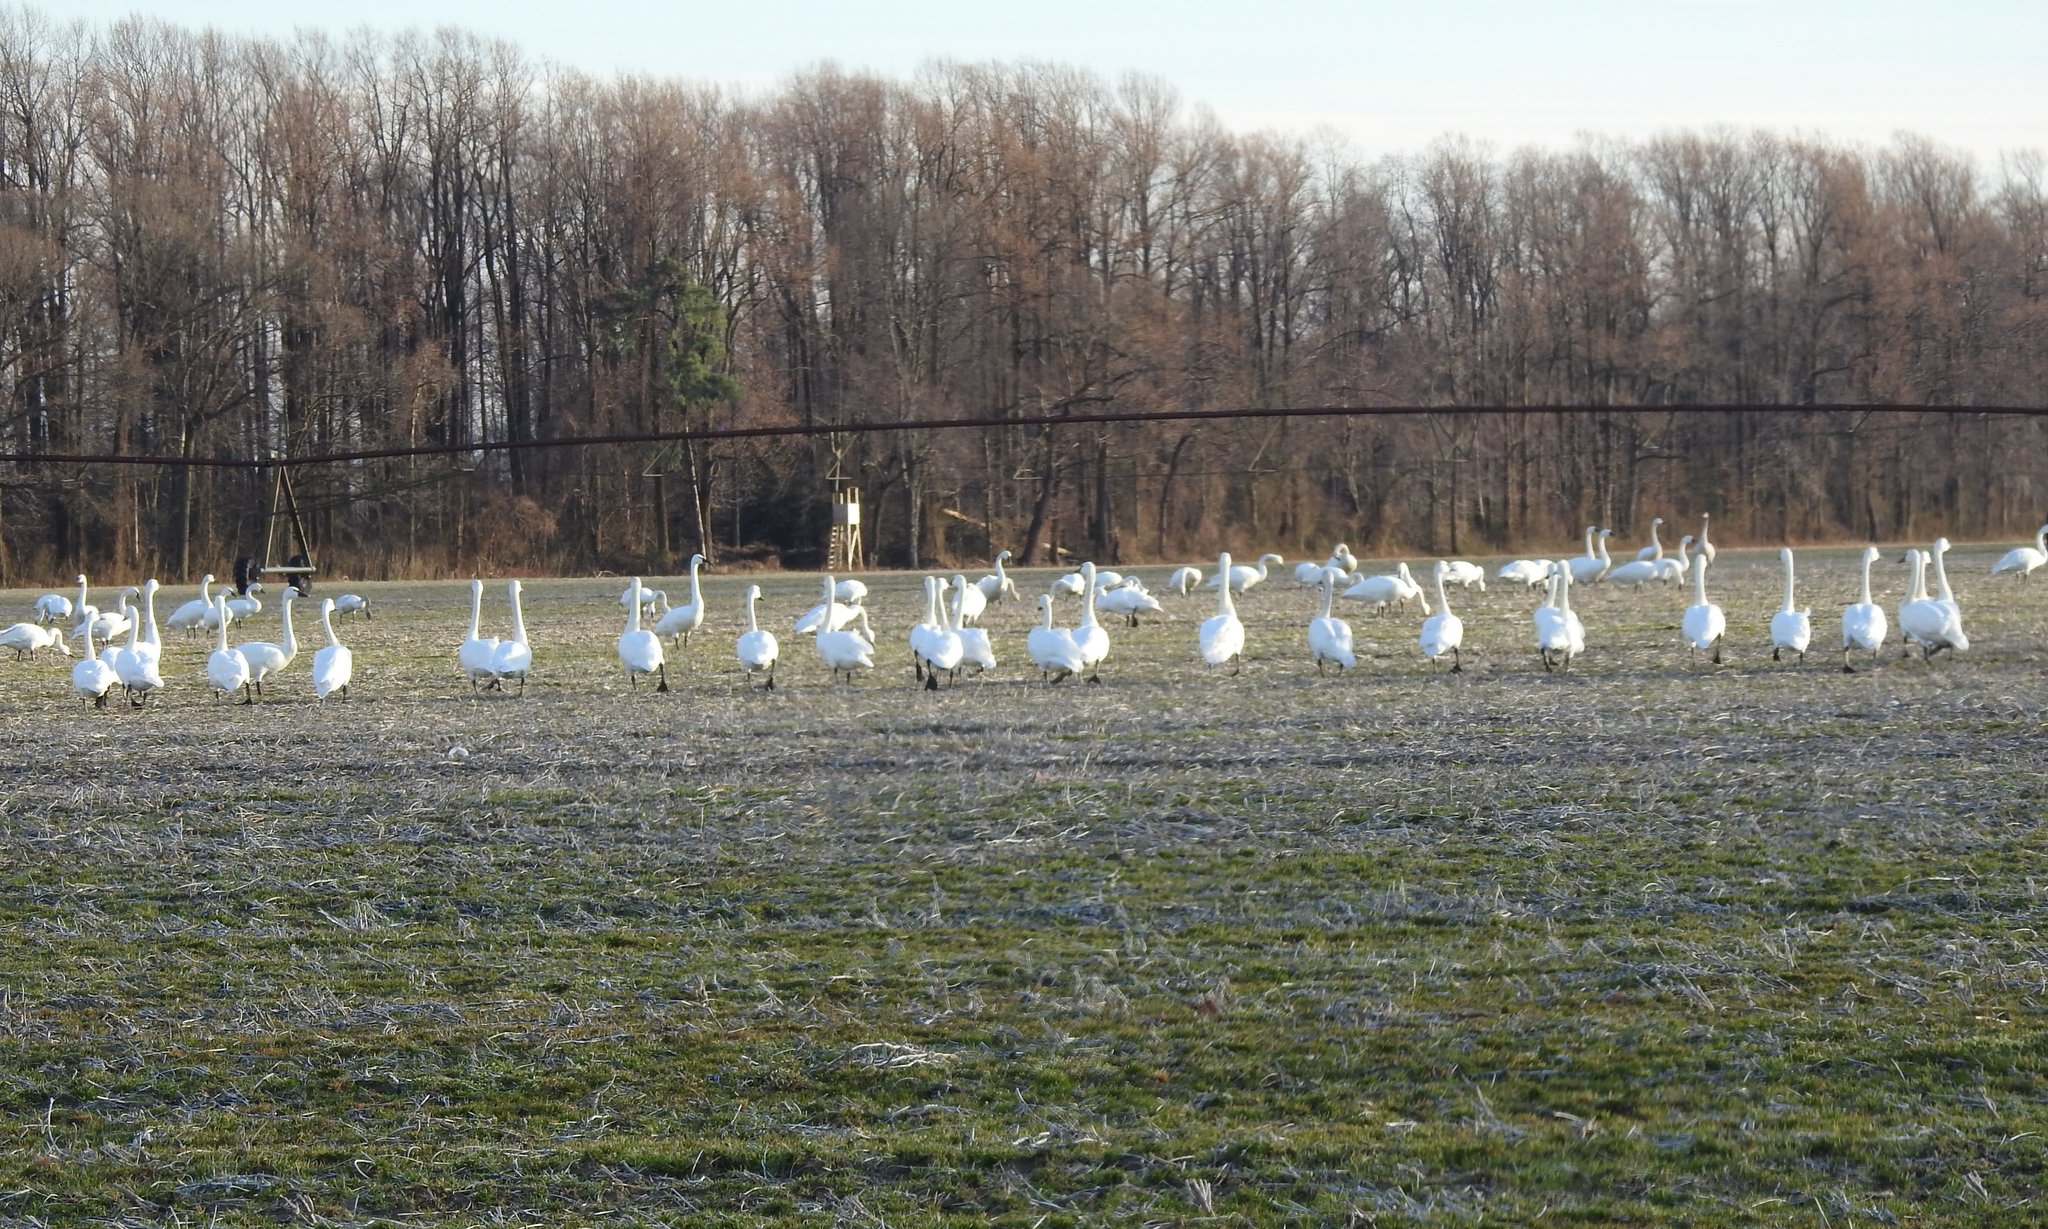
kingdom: Animalia
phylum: Chordata
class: Aves
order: Anseriformes
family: Anatidae
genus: Cygnus
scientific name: Cygnus columbianus
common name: Tundra swan
